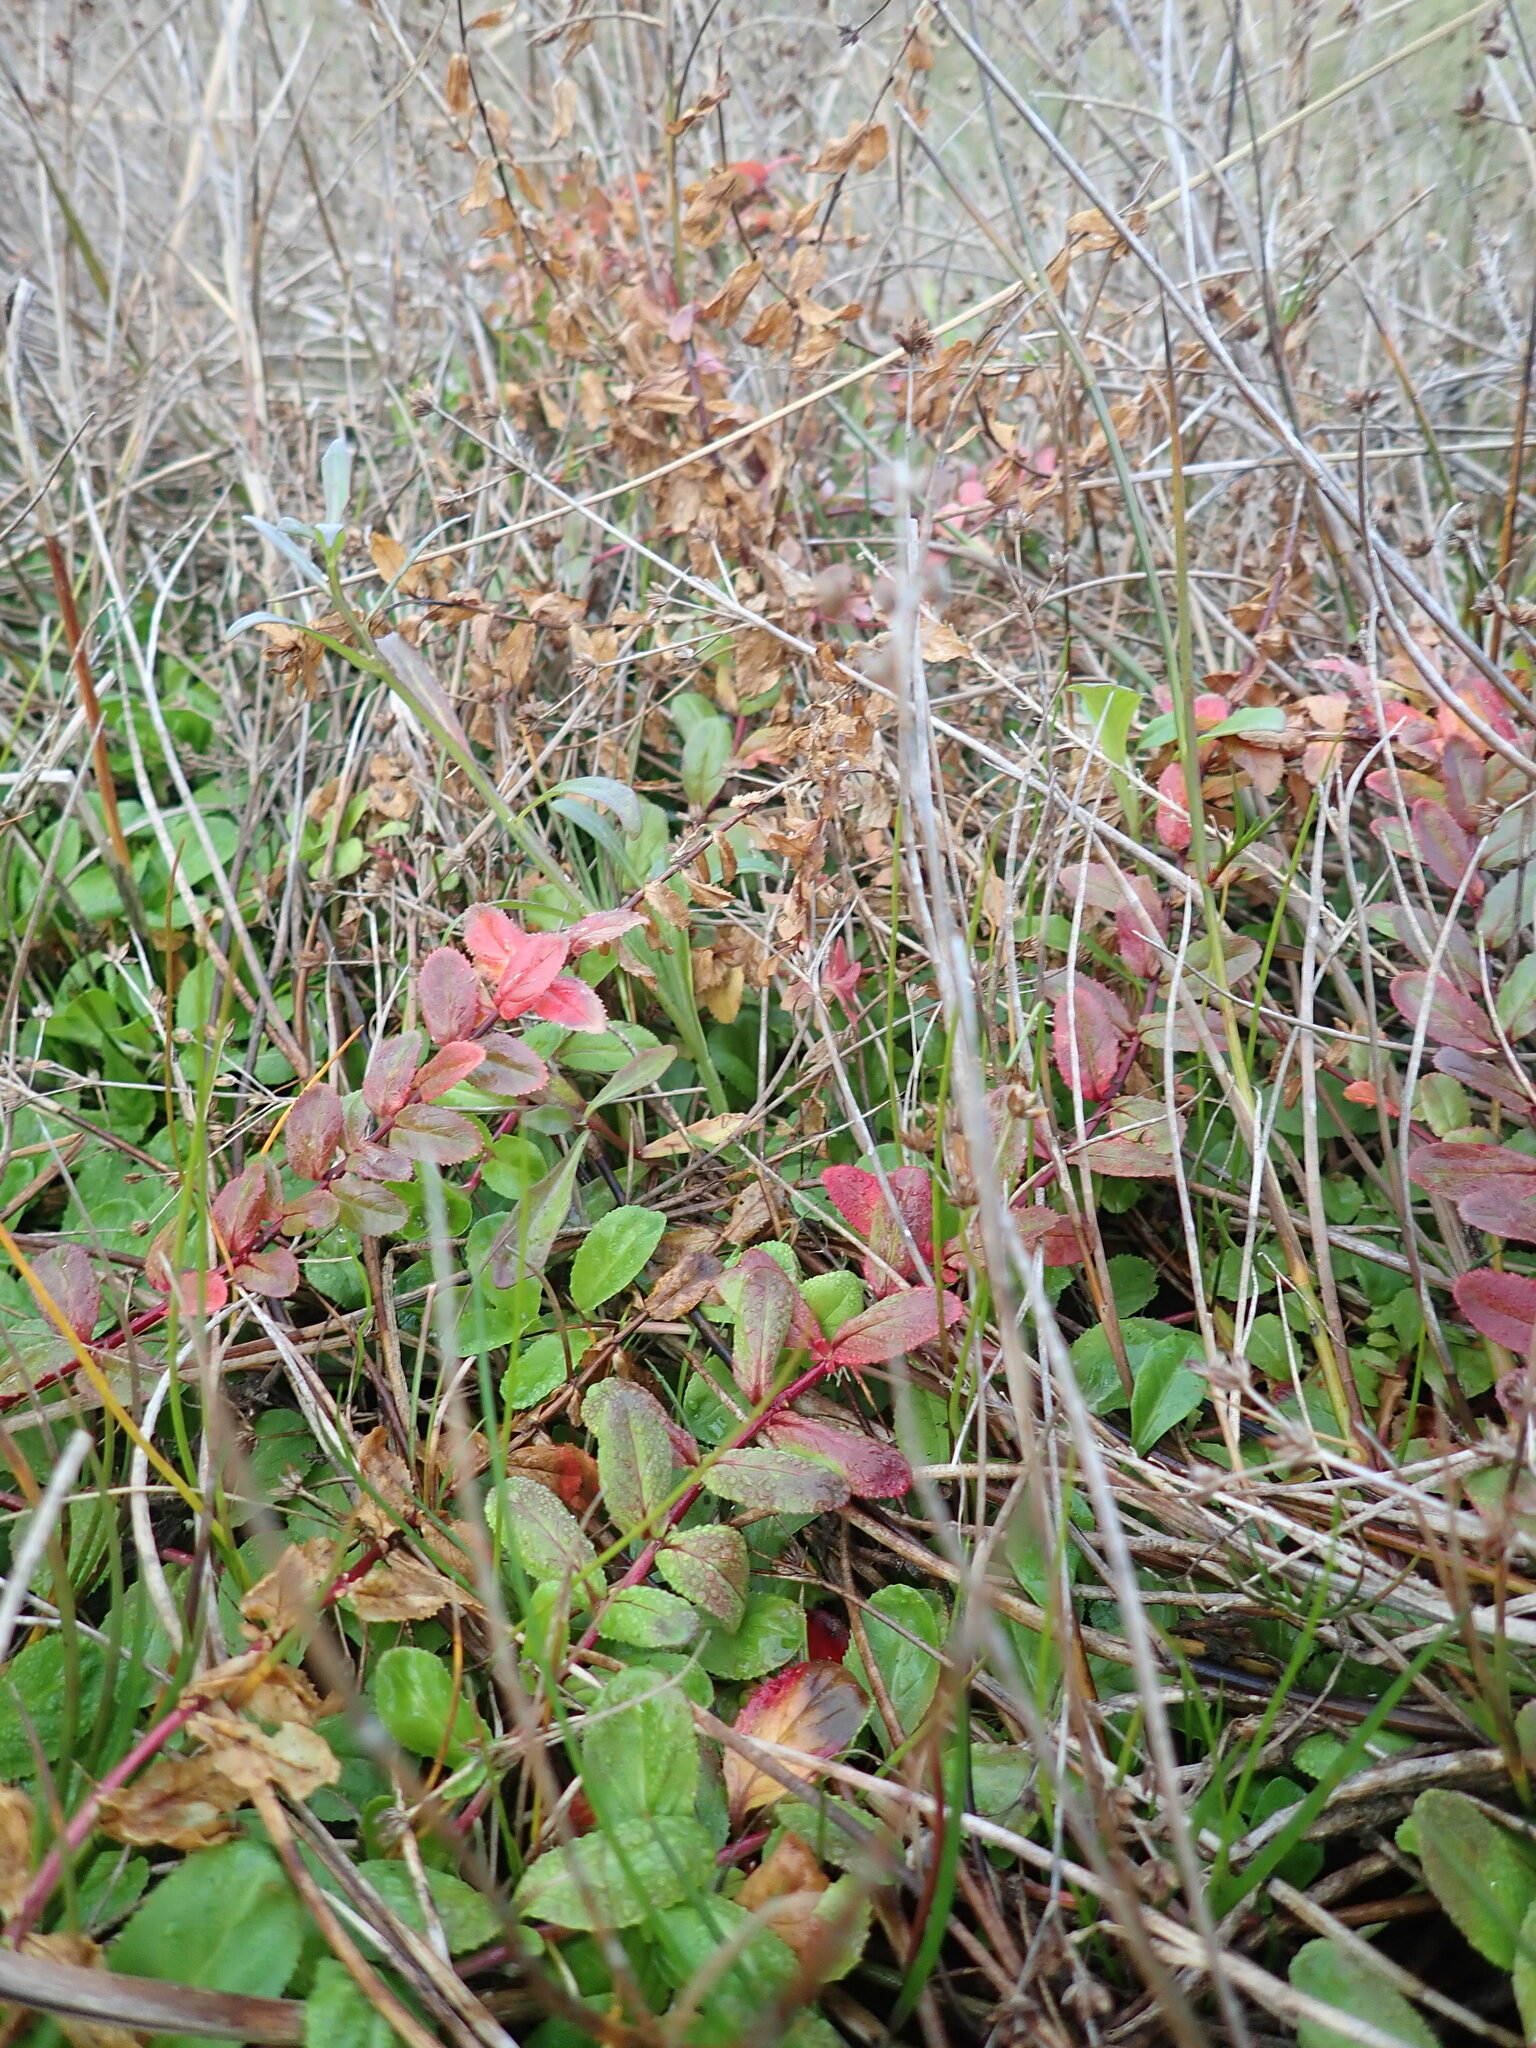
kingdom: Plantae
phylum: Tracheophyta
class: Magnoliopsida
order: Myrtales
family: Onagraceae
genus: Epilobium
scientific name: Epilobium billardiereanum
